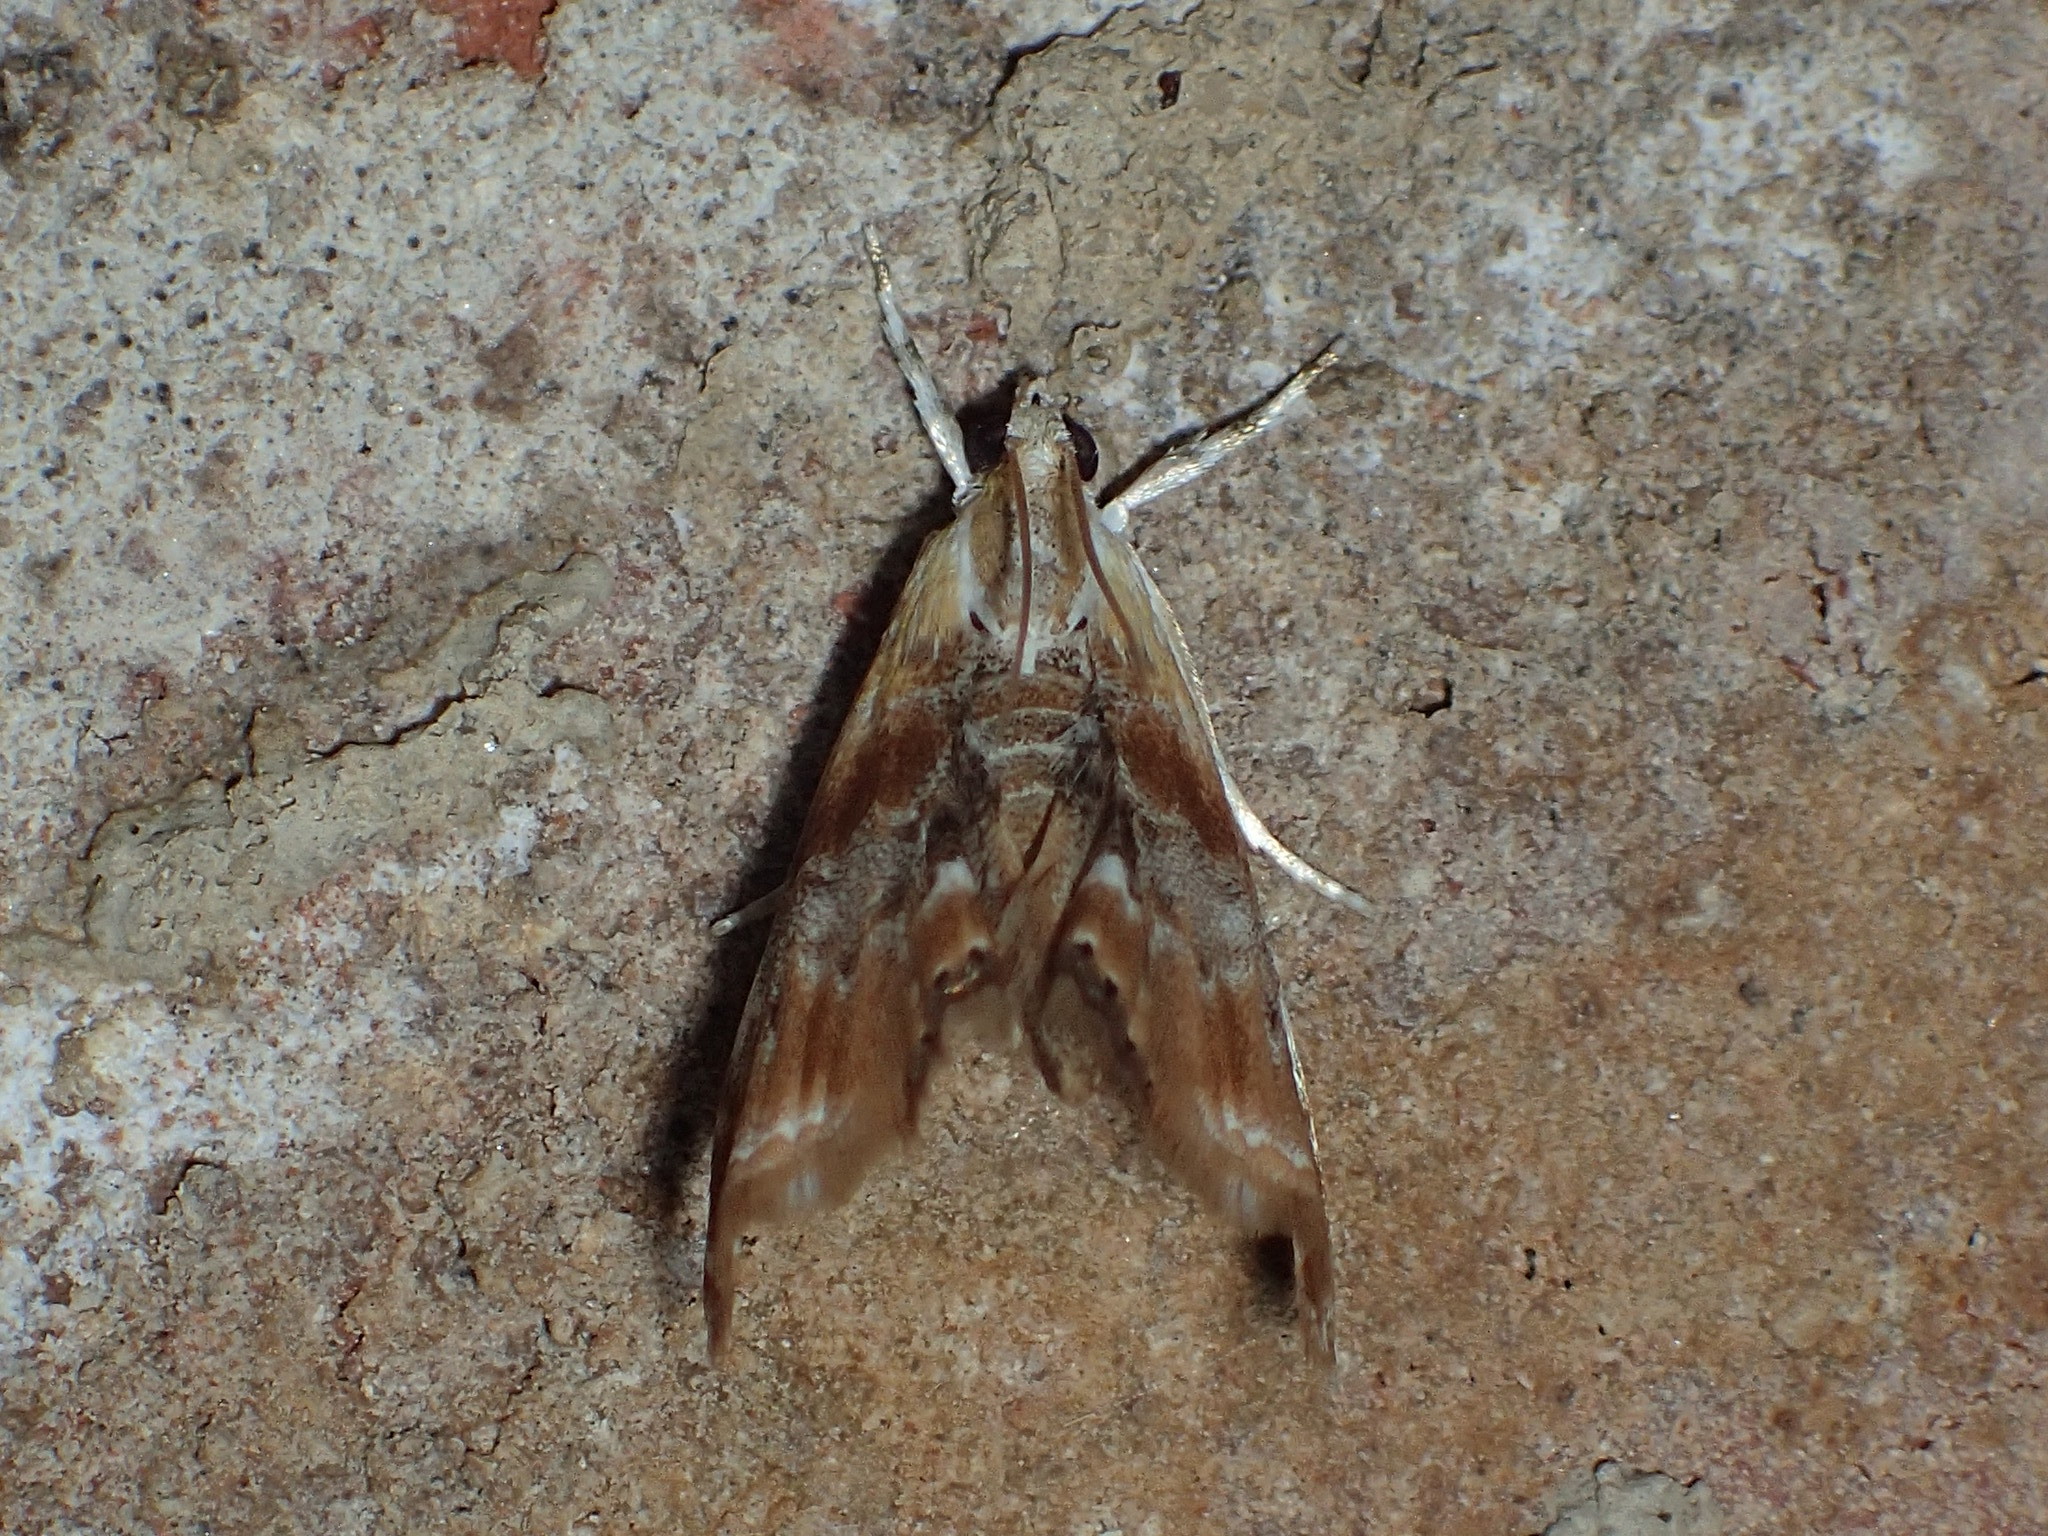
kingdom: Animalia
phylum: Arthropoda
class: Insecta
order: Lepidoptera
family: Crambidae
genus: Dicymolomia
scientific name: Dicymolomia julianalis
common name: Julia's dicymolomia moth
